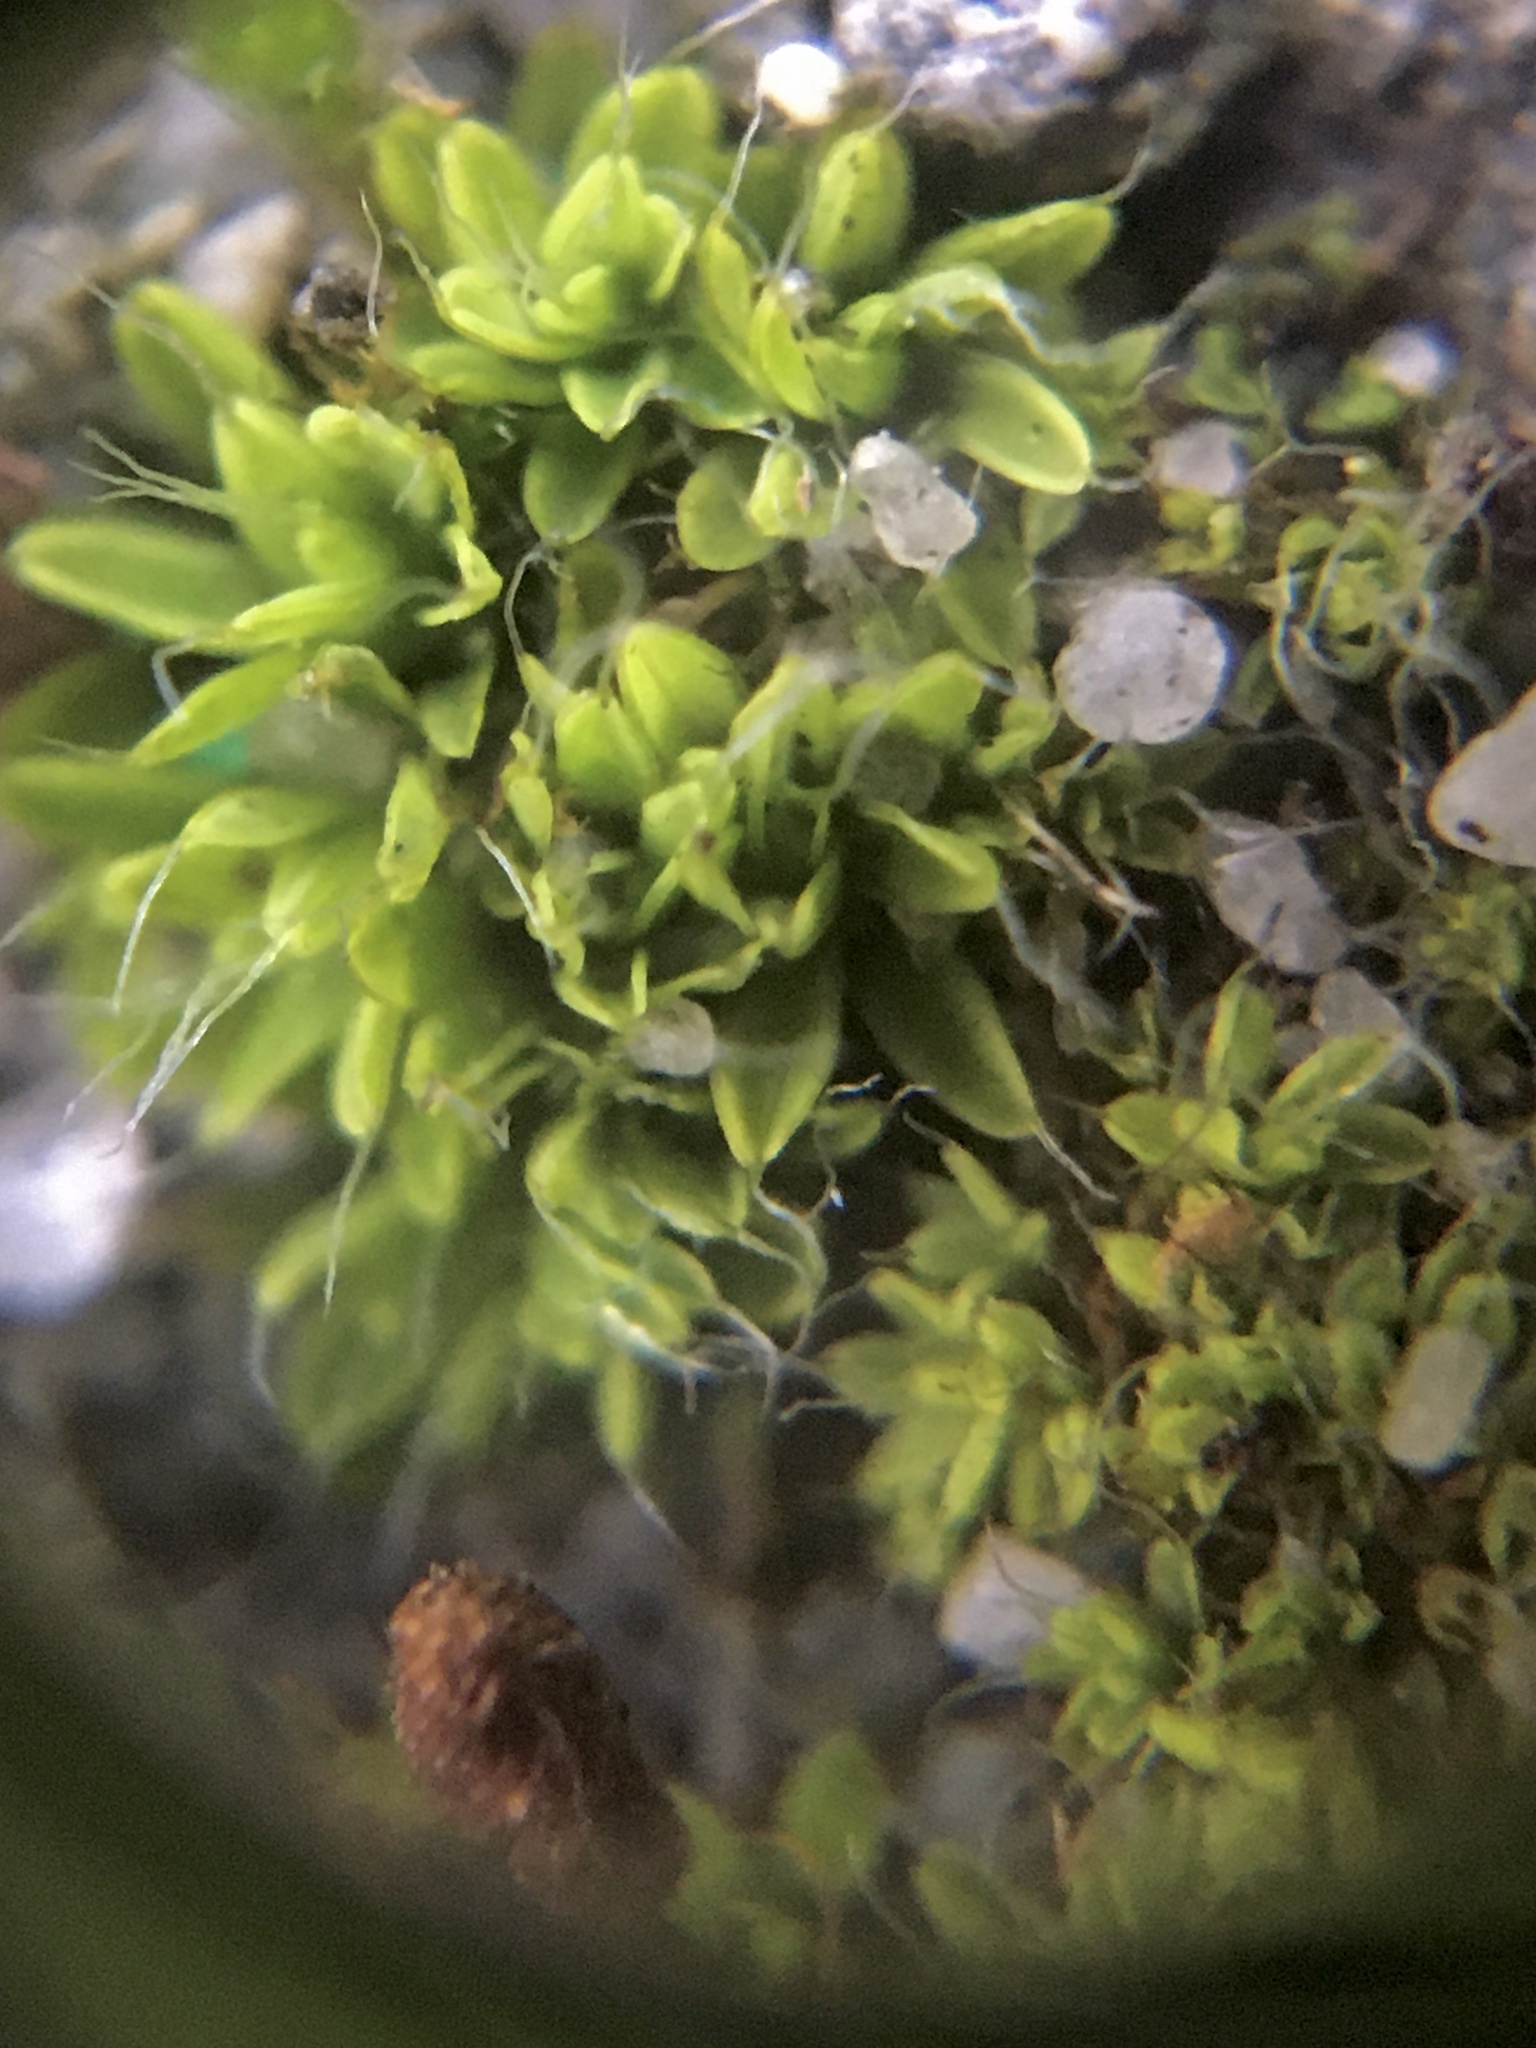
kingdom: Plantae
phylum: Bryophyta
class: Bryopsida
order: Pottiales
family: Pottiaceae
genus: Tortula
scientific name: Tortula muralis
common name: Wall screw-moss
